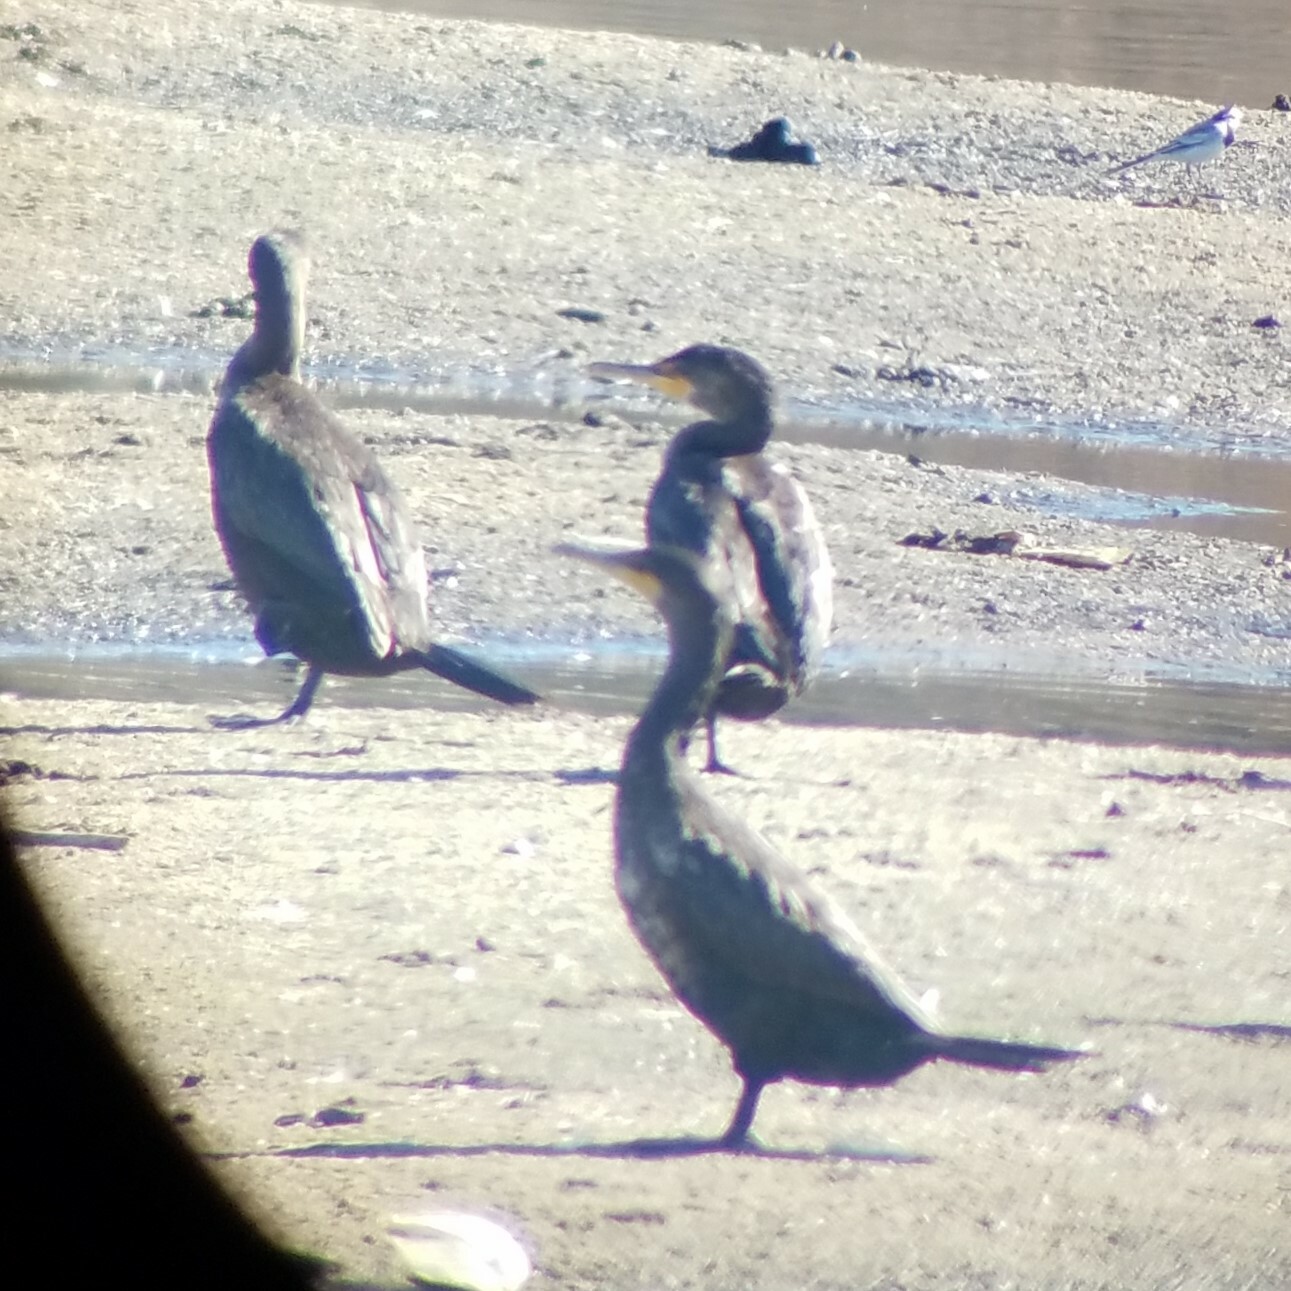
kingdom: Animalia
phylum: Chordata
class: Aves
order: Suliformes
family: Phalacrocoracidae
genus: Phalacrocorax
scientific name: Phalacrocorax auritus
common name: Double-crested cormorant
